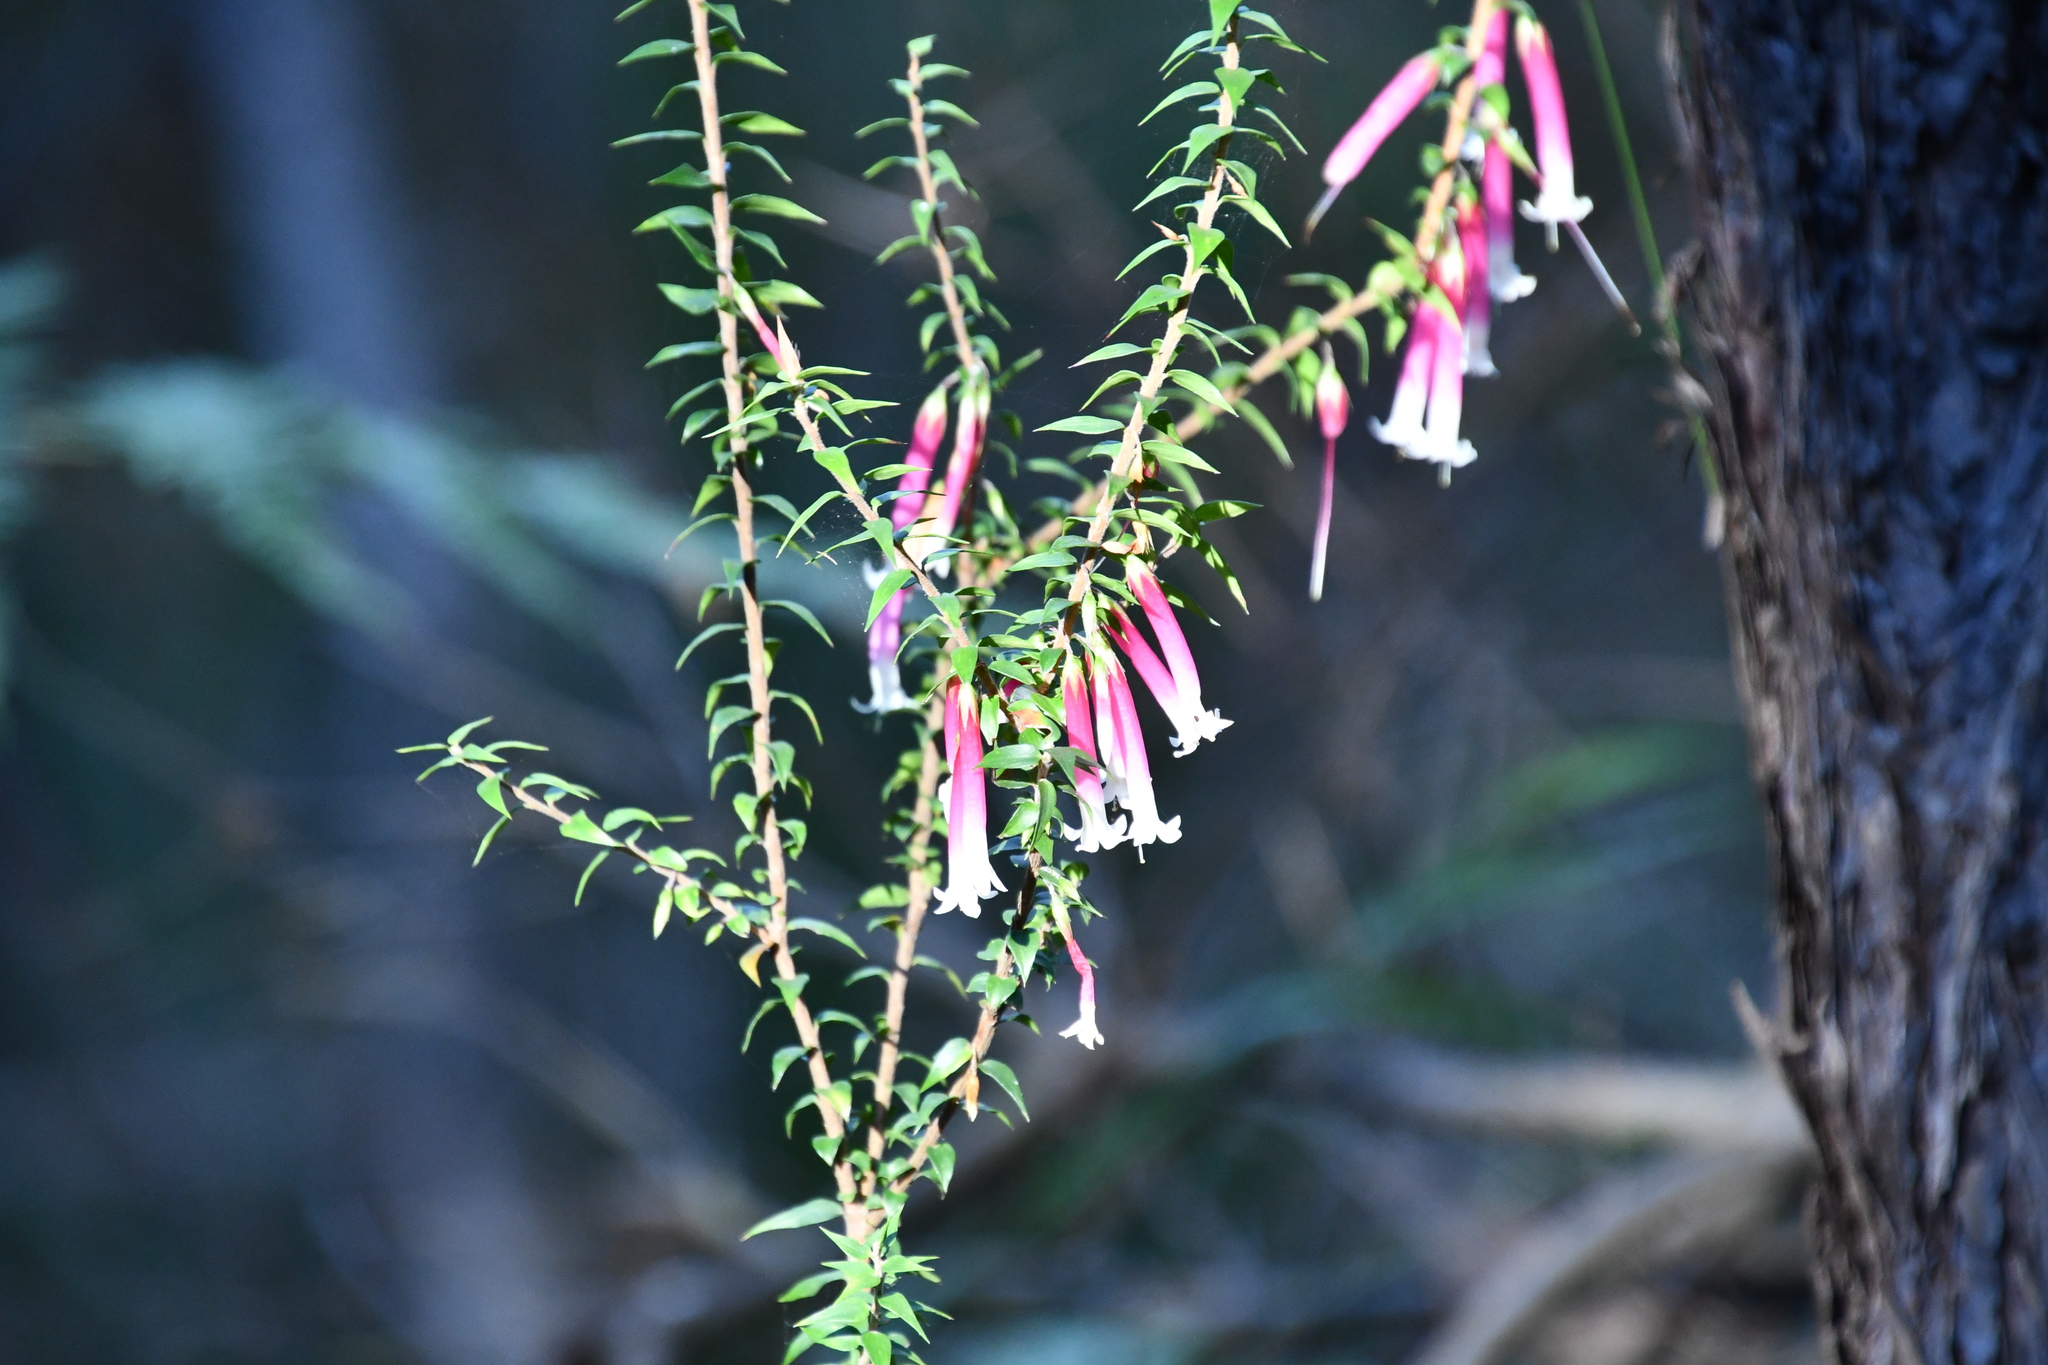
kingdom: Plantae
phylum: Tracheophyta
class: Magnoliopsida
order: Ericales
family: Ericaceae
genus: Epacris
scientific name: Epacris longiflora
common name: Fuchsia-heath
